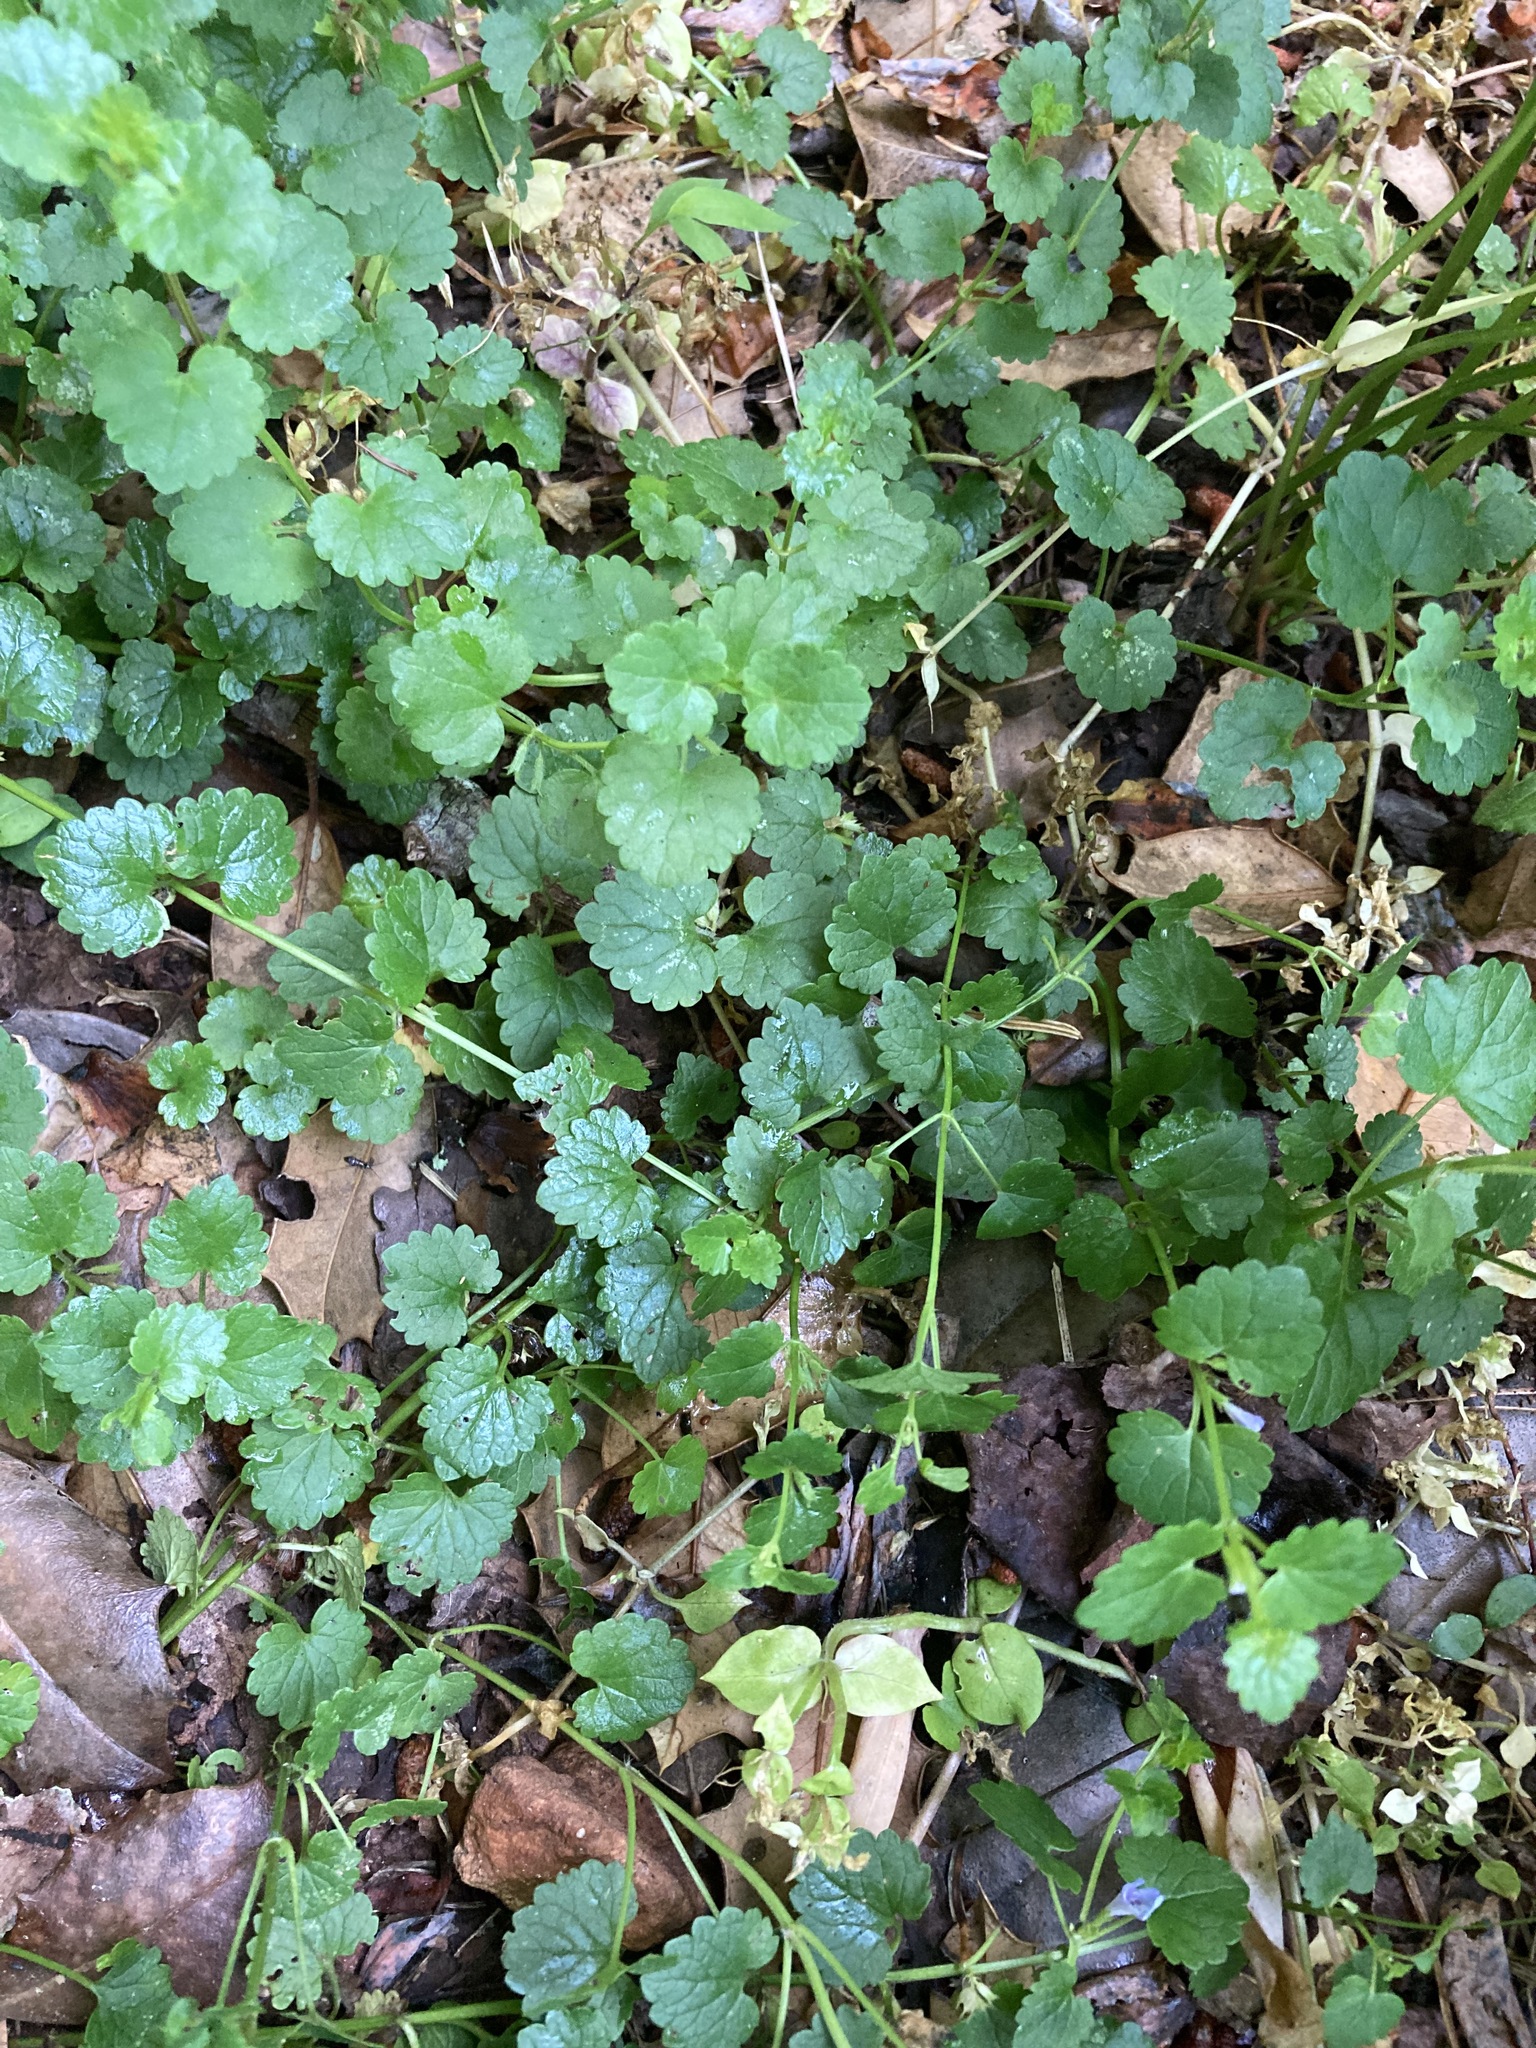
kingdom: Plantae
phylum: Tracheophyta
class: Magnoliopsida
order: Lamiales
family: Lamiaceae
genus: Glechoma
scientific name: Glechoma hederacea
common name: Ground ivy
